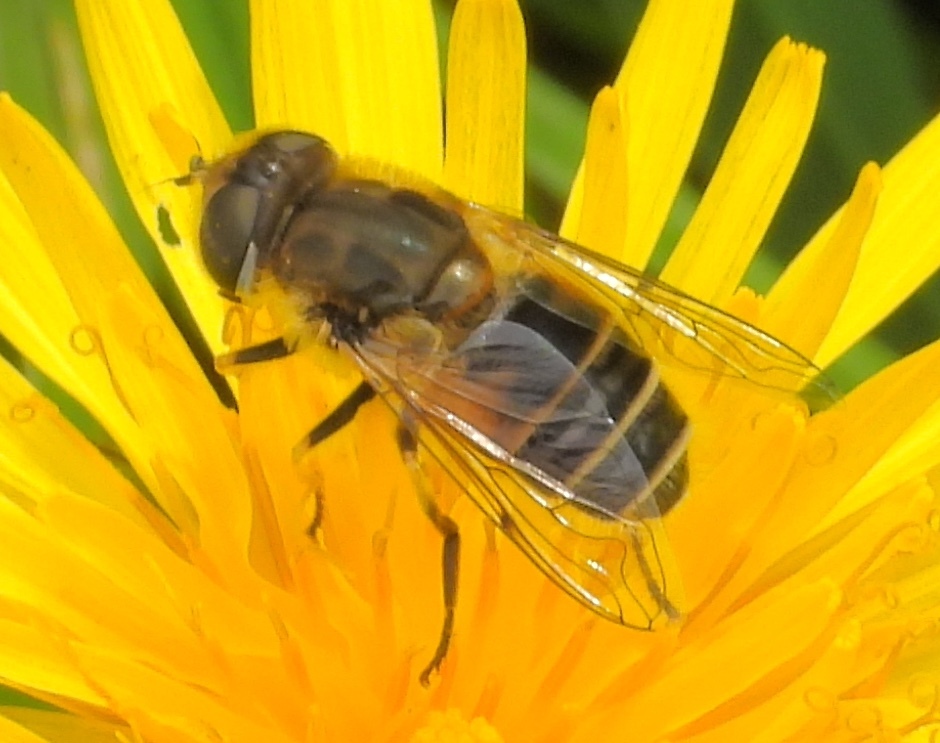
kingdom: Animalia
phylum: Arthropoda
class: Insecta
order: Diptera
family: Syrphidae
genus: Eristalis
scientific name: Eristalis arbustorum
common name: Hover fly
